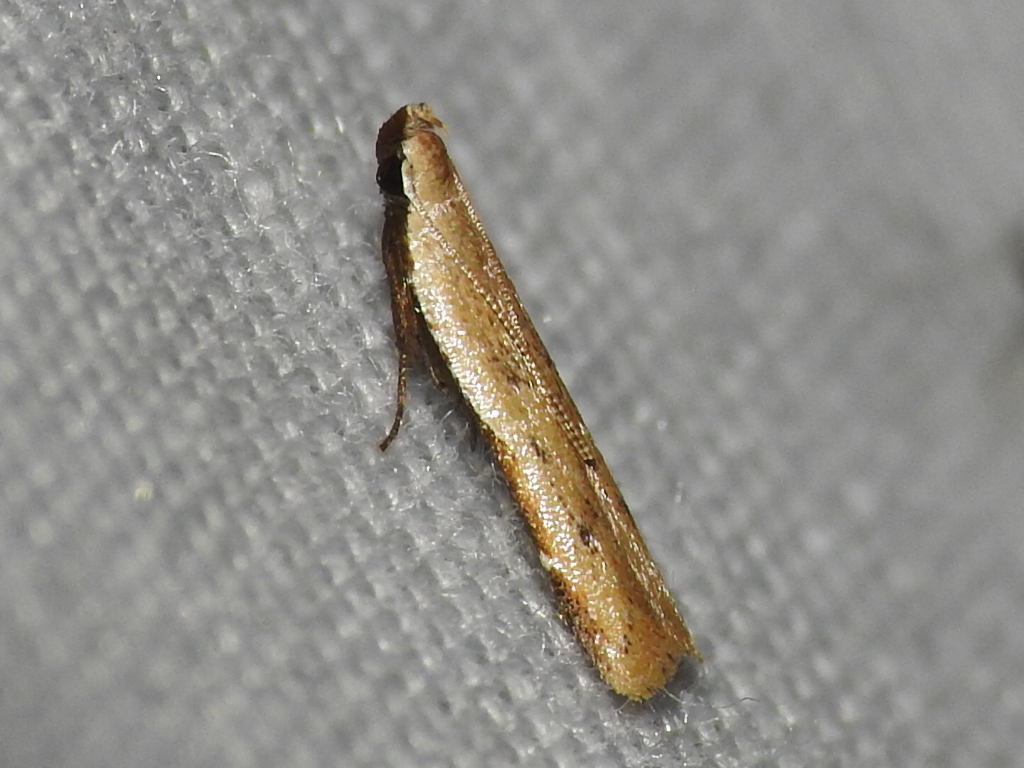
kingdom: Animalia
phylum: Arthropoda
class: Insecta
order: Lepidoptera
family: Gelechiidae
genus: Mesophleps
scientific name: Mesophleps adustipennis
